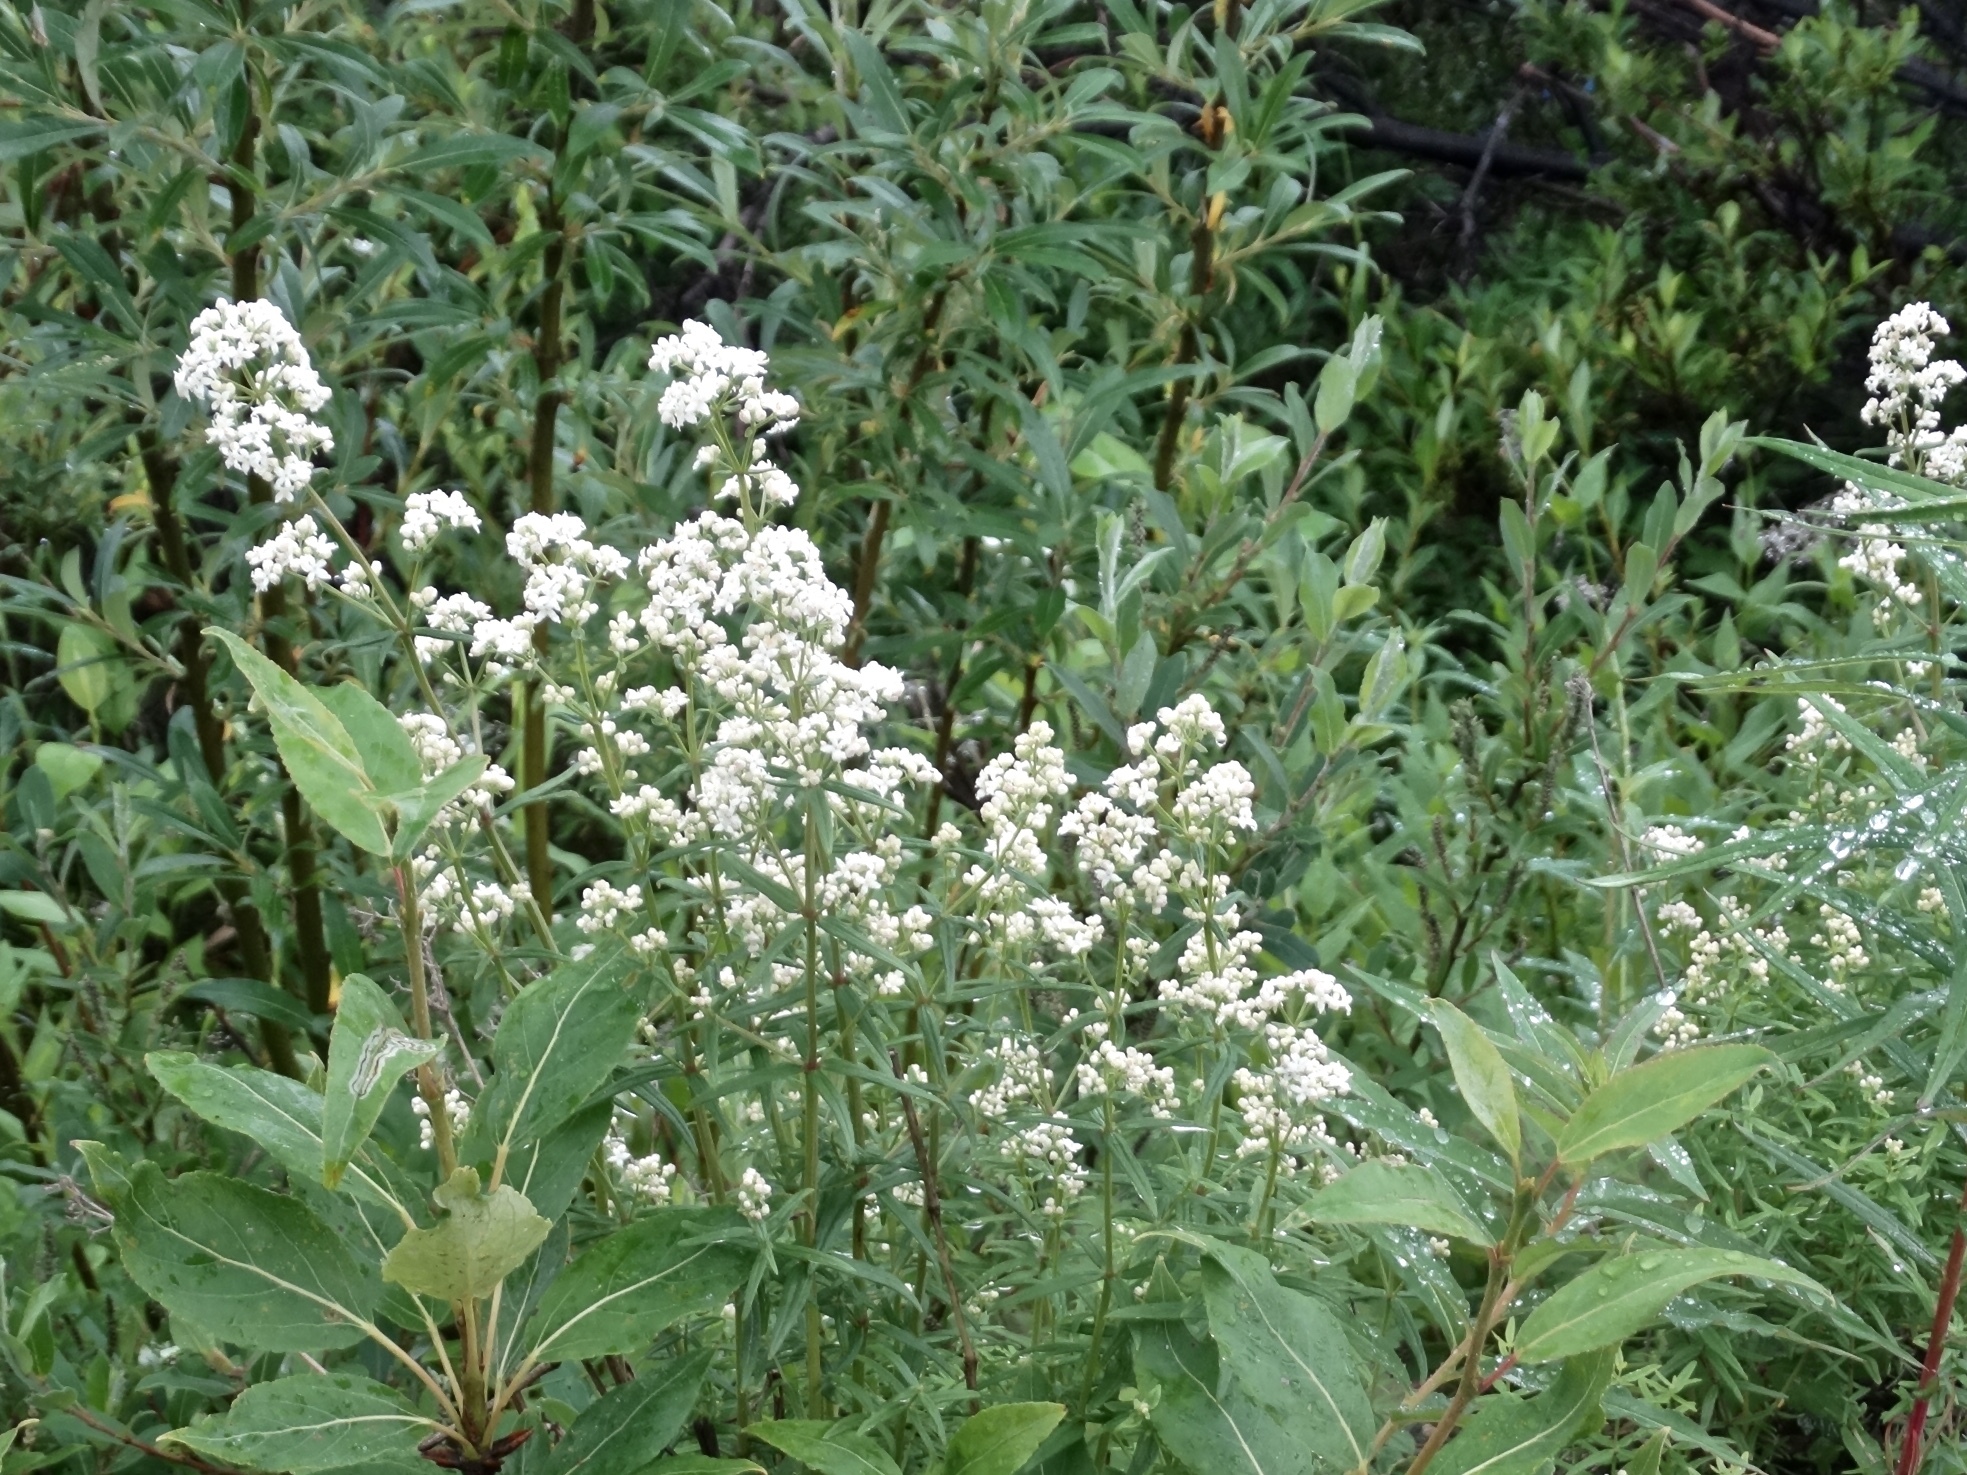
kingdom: Plantae
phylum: Tracheophyta
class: Magnoliopsida
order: Gentianales
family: Rubiaceae
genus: Galium
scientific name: Galium boreale
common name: Northern bedstraw
